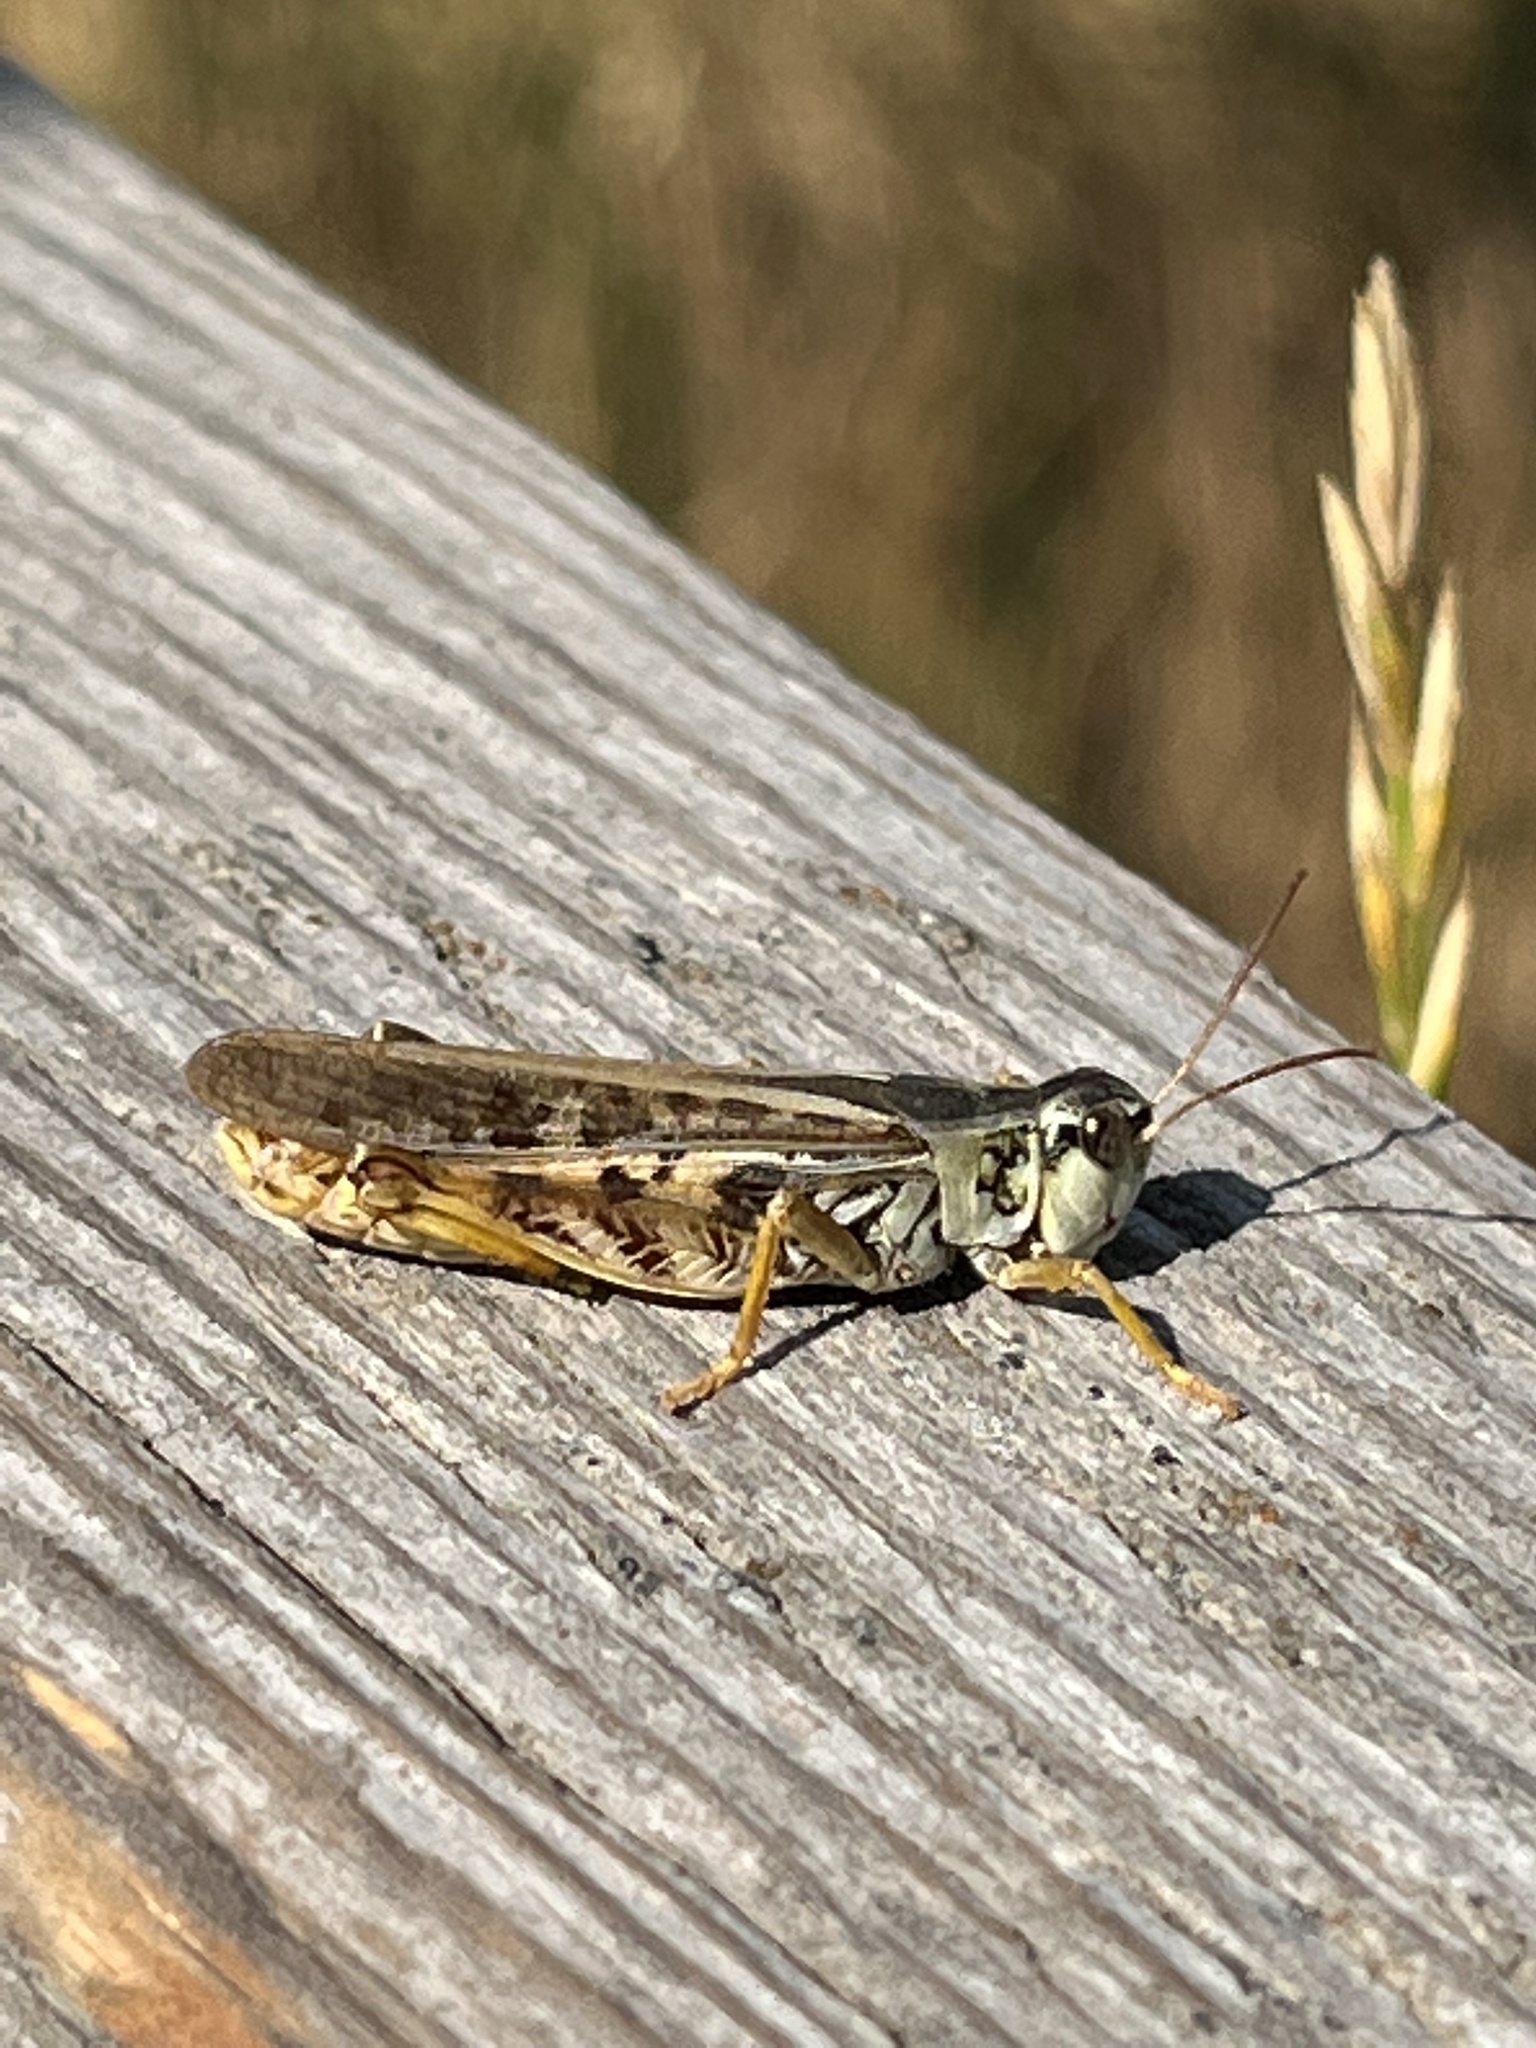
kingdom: Animalia
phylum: Arthropoda
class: Insecta
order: Orthoptera
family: Acrididae
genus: Camnula
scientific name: Camnula pellucida
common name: Clear-winged grasshopper
